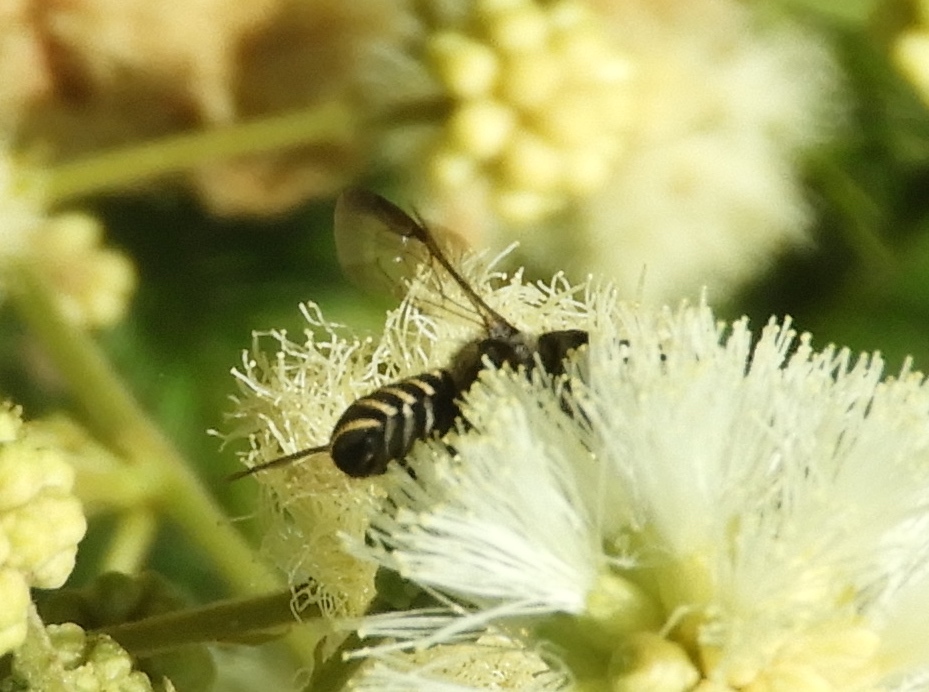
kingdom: Animalia
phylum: Arthropoda
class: Insecta
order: Hymenoptera
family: Megachilidae
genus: Megachile
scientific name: Megachile
